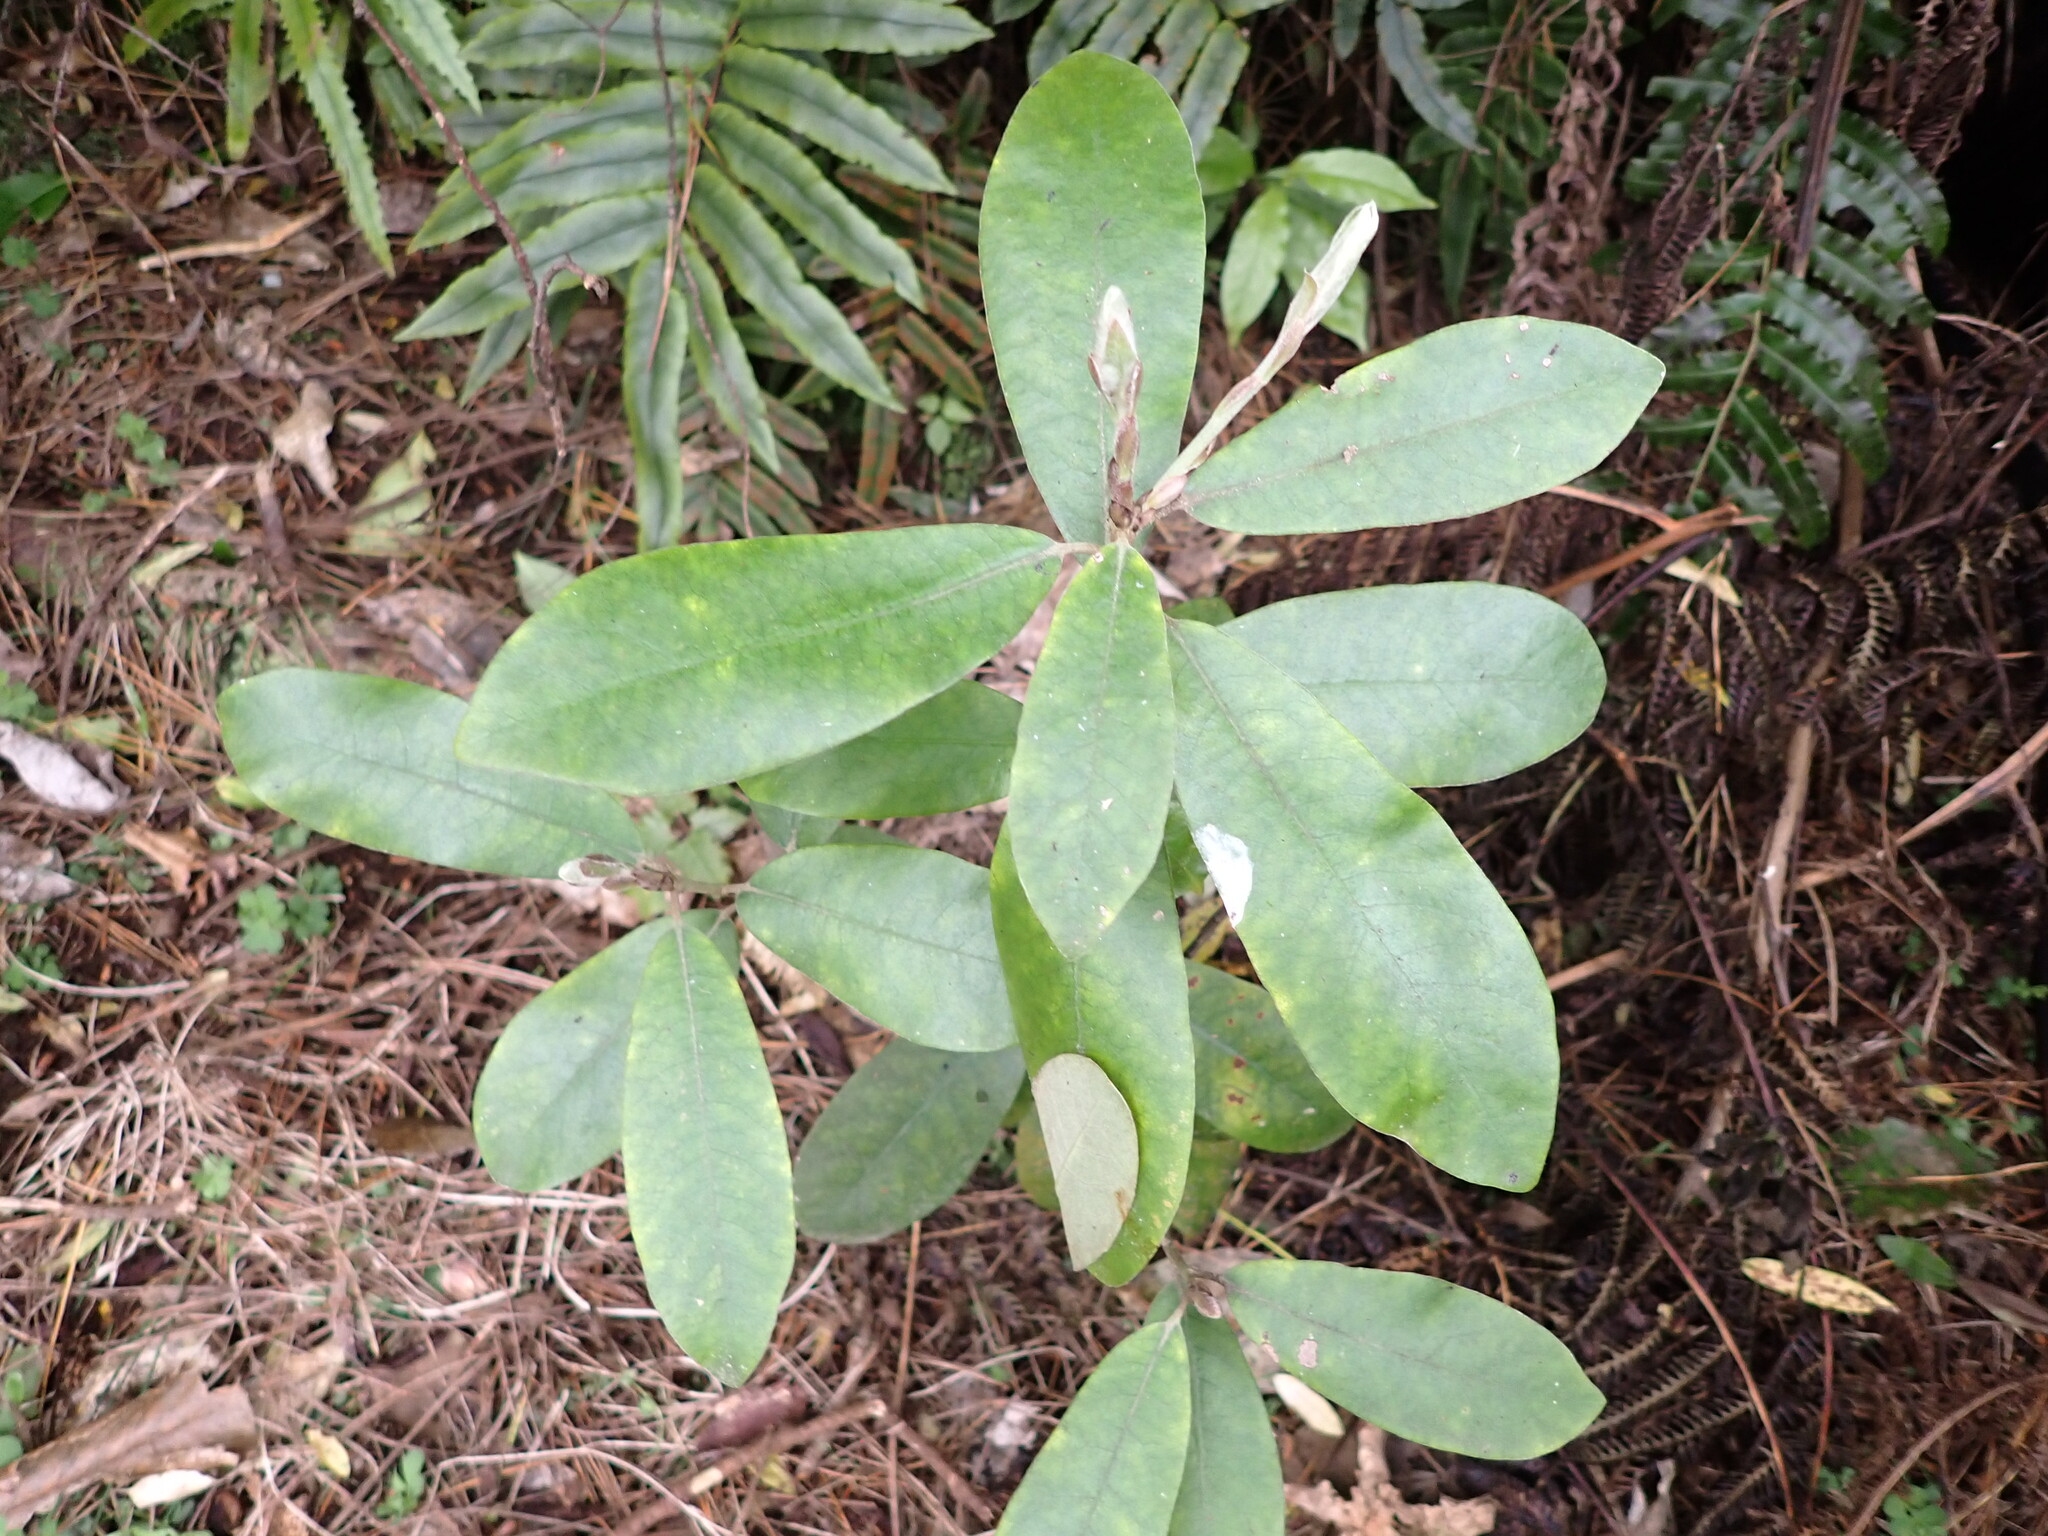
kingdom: Plantae
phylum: Tracheophyta
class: Magnoliopsida
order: Apiales
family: Pittosporaceae
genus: Pittosporum
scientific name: Pittosporum ralphii
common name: Ralph's desertwillow
